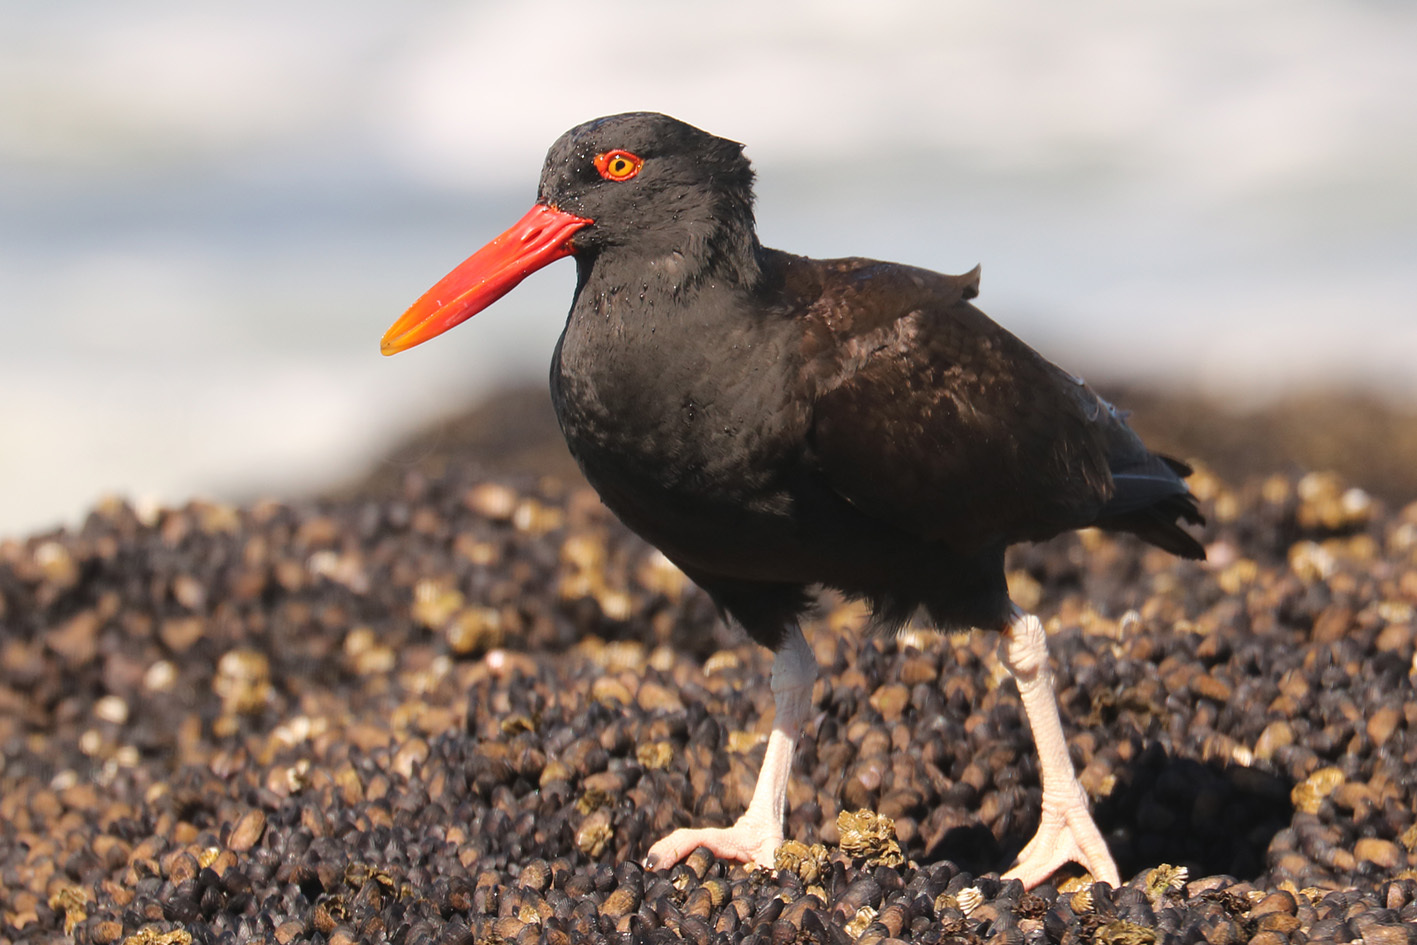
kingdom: Animalia
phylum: Chordata
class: Aves
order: Charadriiformes
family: Haematopodidae
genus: Haematopus
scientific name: Haematopus ater
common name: Blackish oystercatcher
